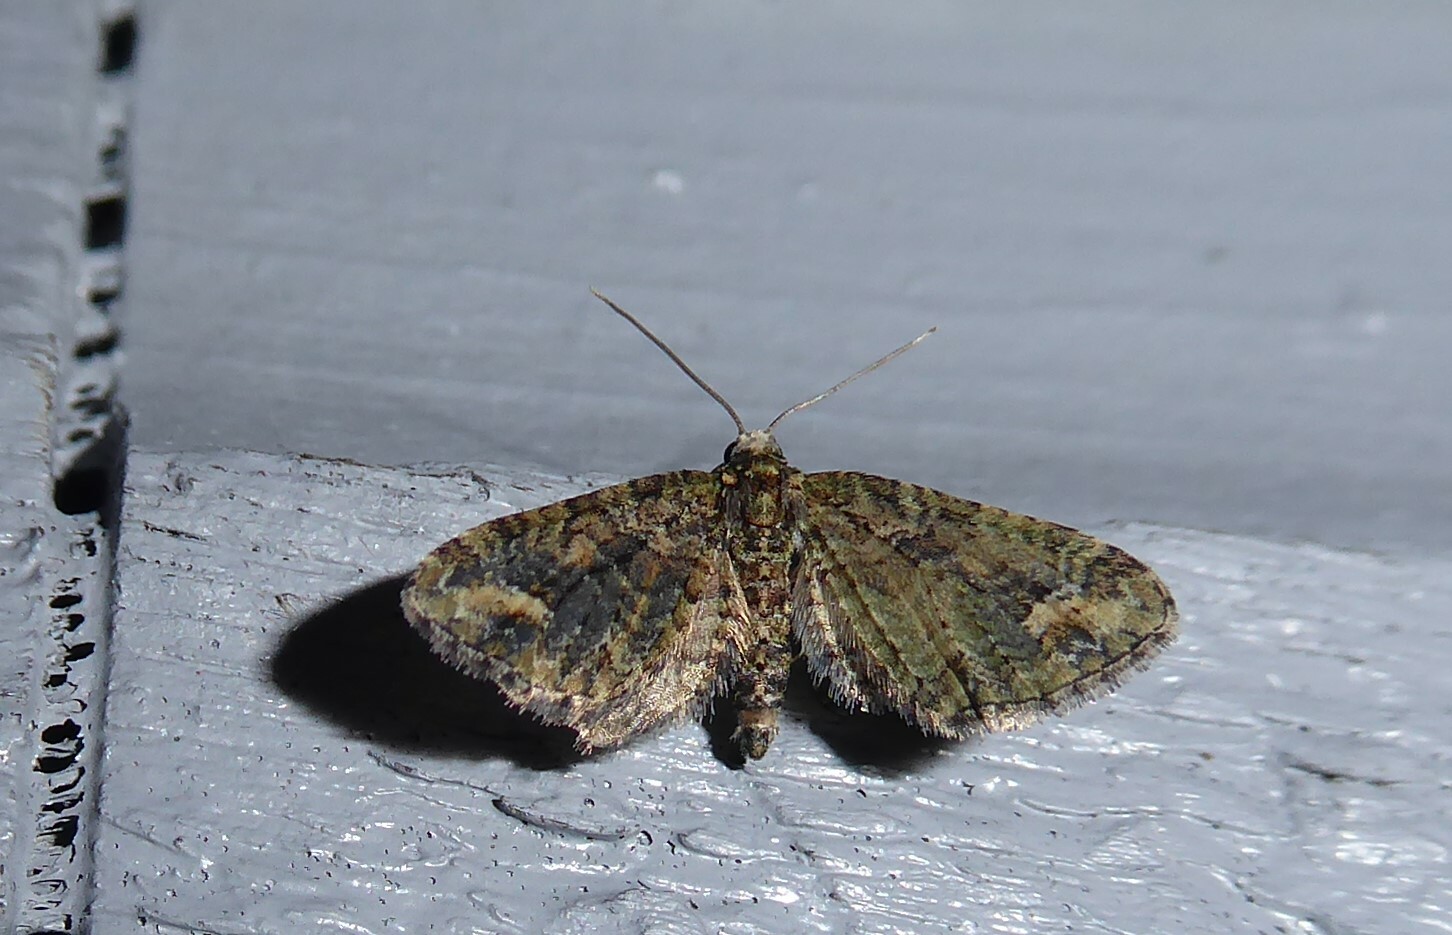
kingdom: Animalia
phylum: Arthropoda
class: Insecta
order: Lepidoptera
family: Geometridae
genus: Idaea
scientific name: Idaea mutanda
